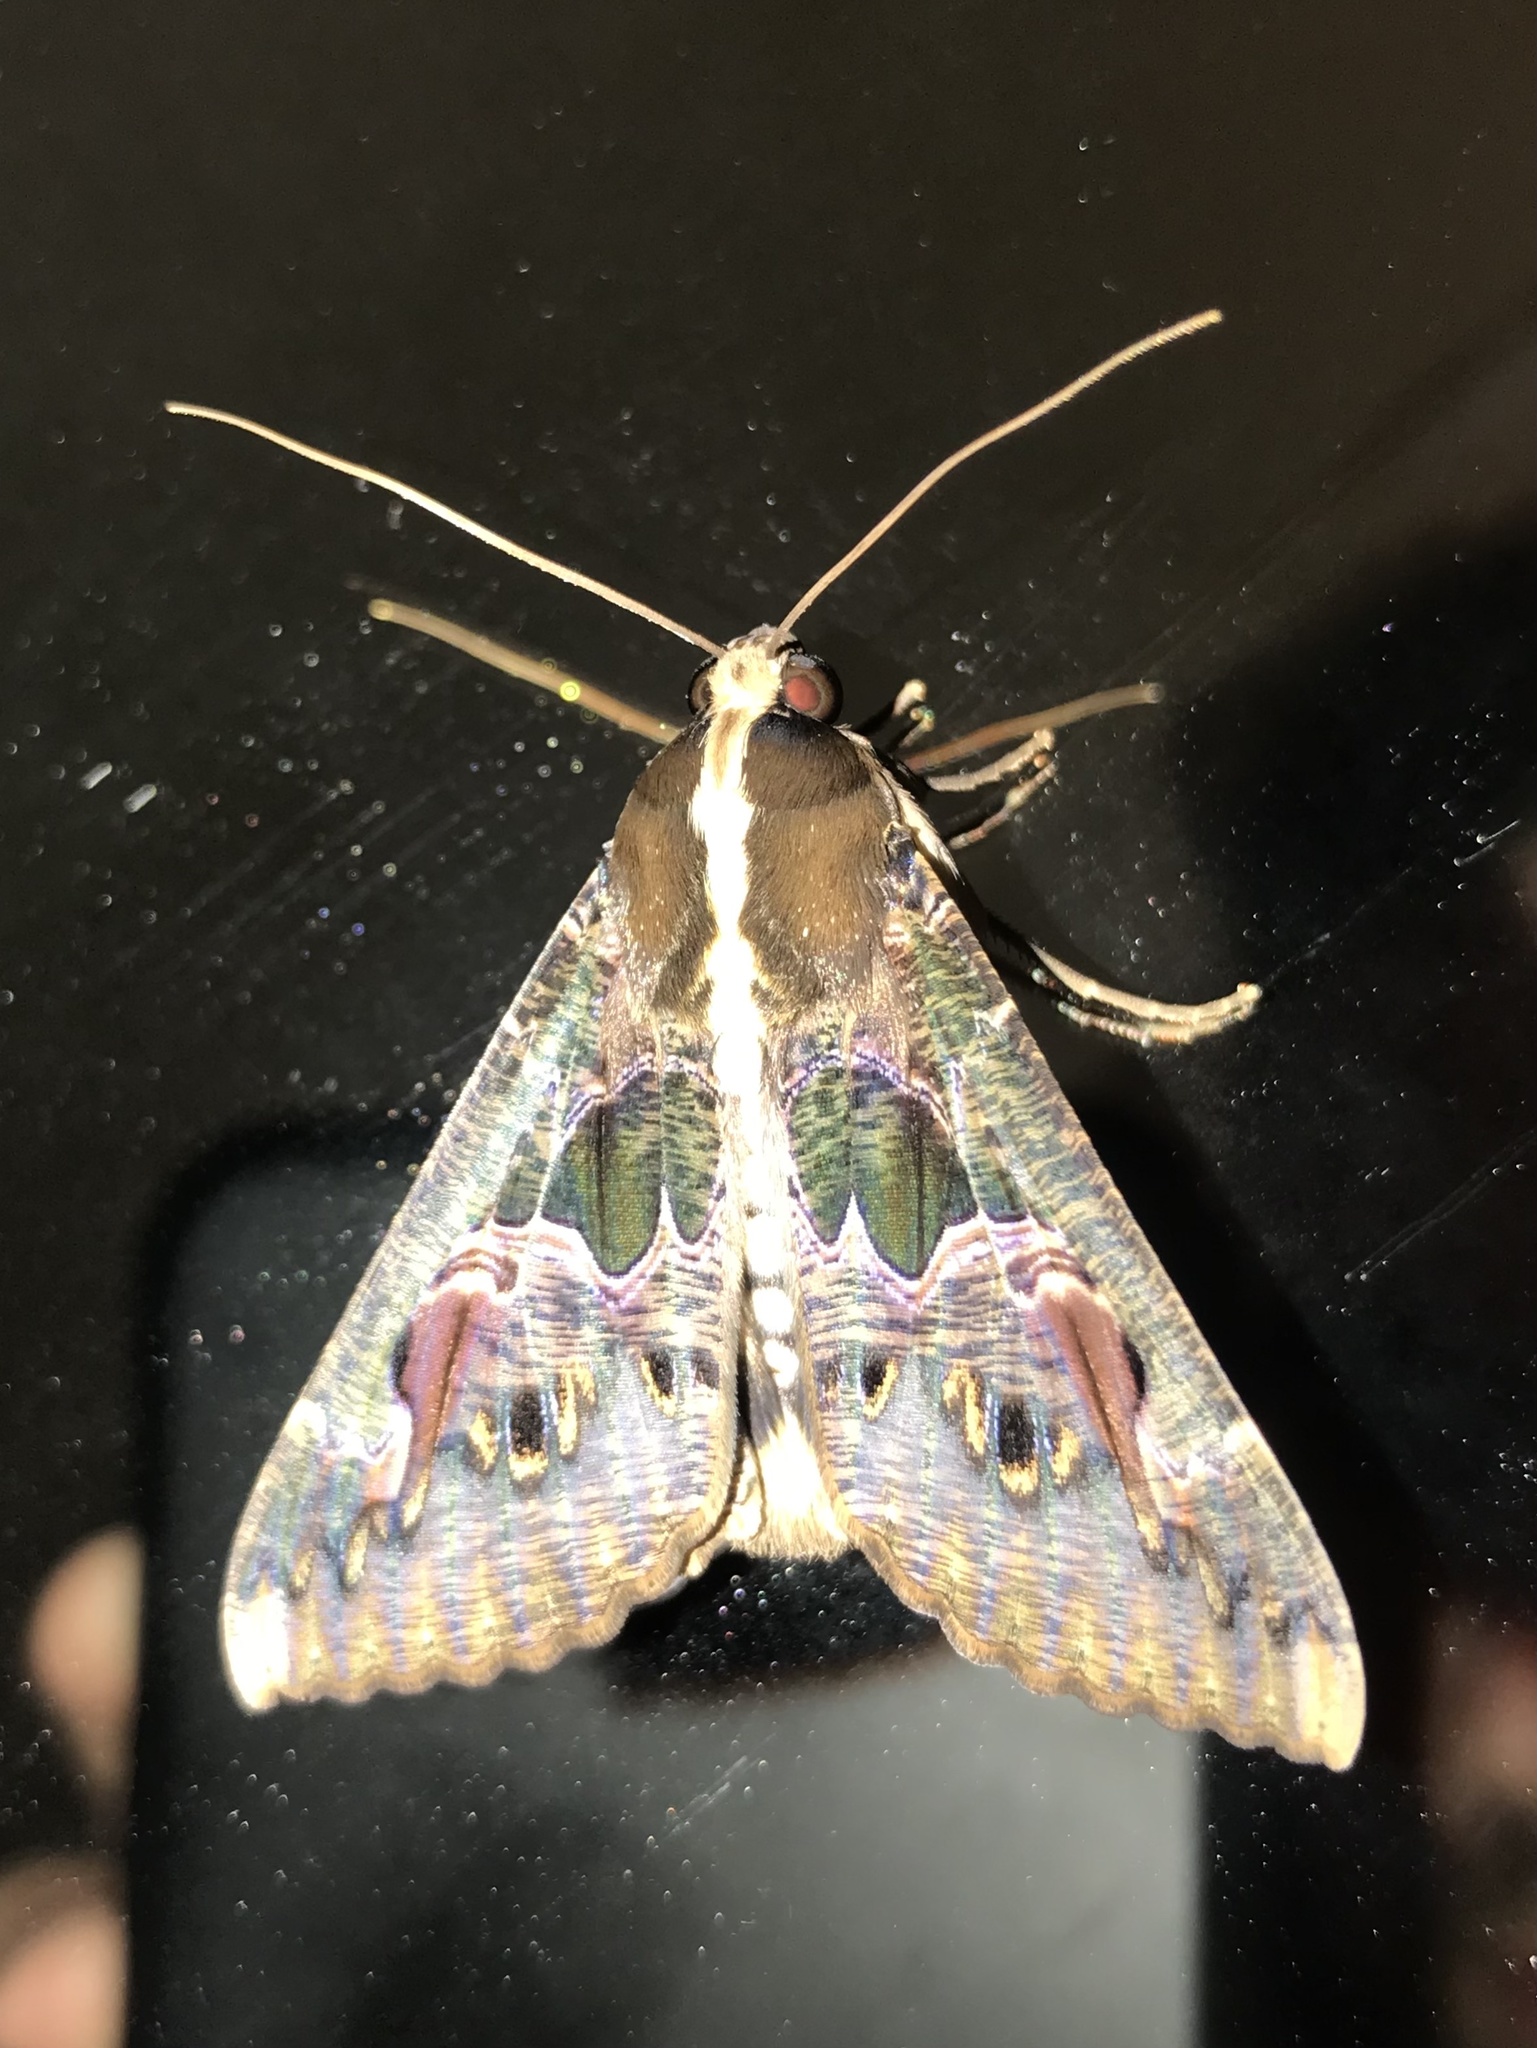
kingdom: Animalia
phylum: Arthropoda
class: Insecta
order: Lepidoptera
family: Erebidae
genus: Sphingomorpha
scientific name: Sphingomorpha chlorea
